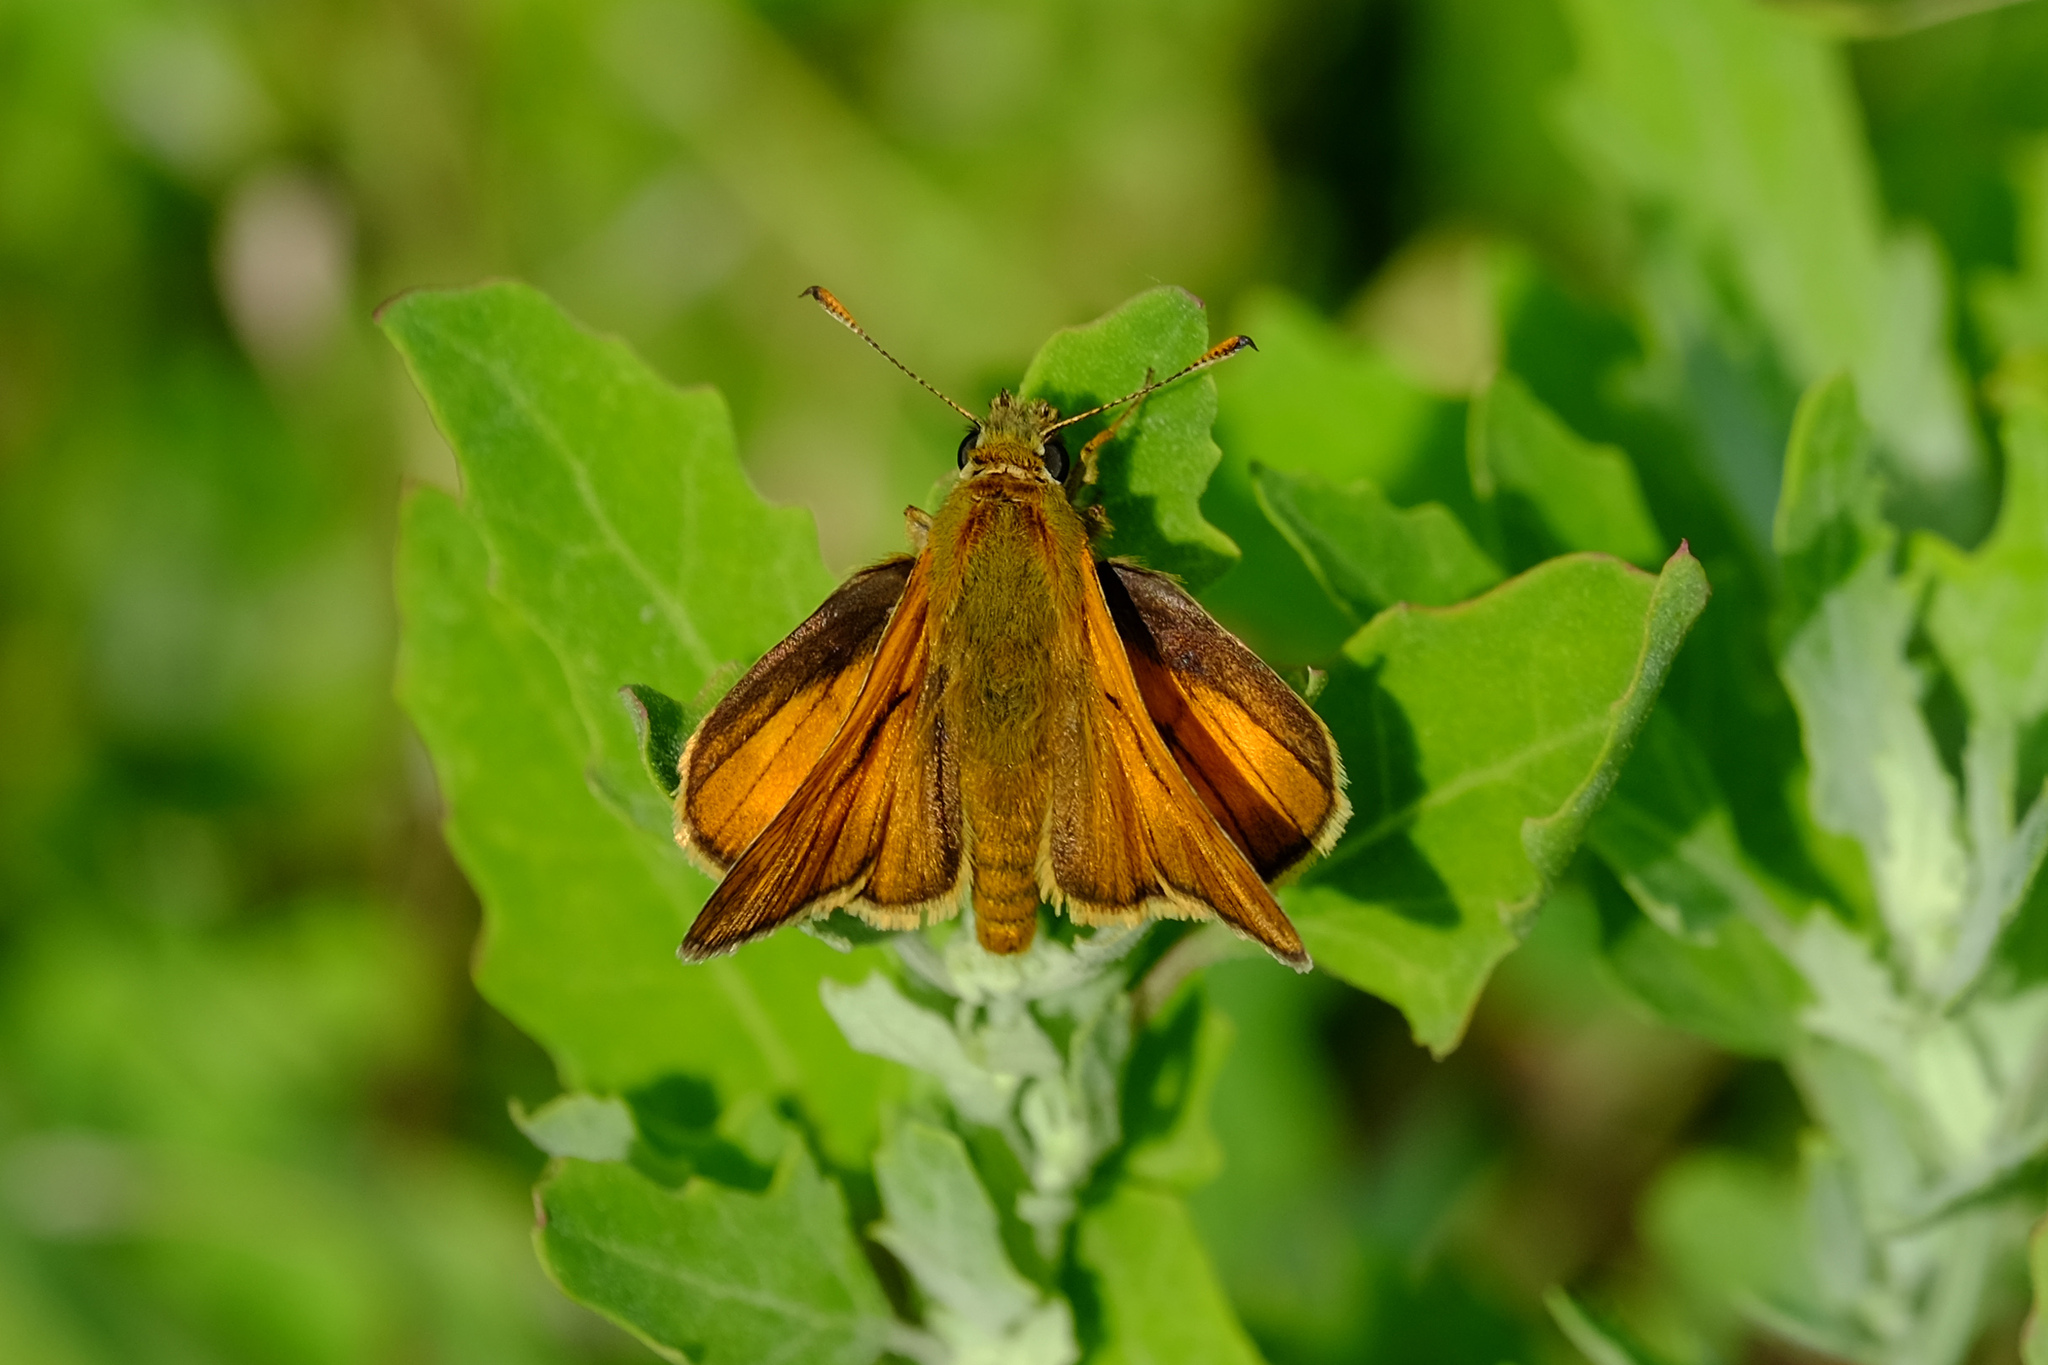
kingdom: Animalia
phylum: Arthropoda
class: Insecta
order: Lepidoptera
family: Hesperiidae
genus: Ochlodes
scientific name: Ochlodes venata
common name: Large skipper
